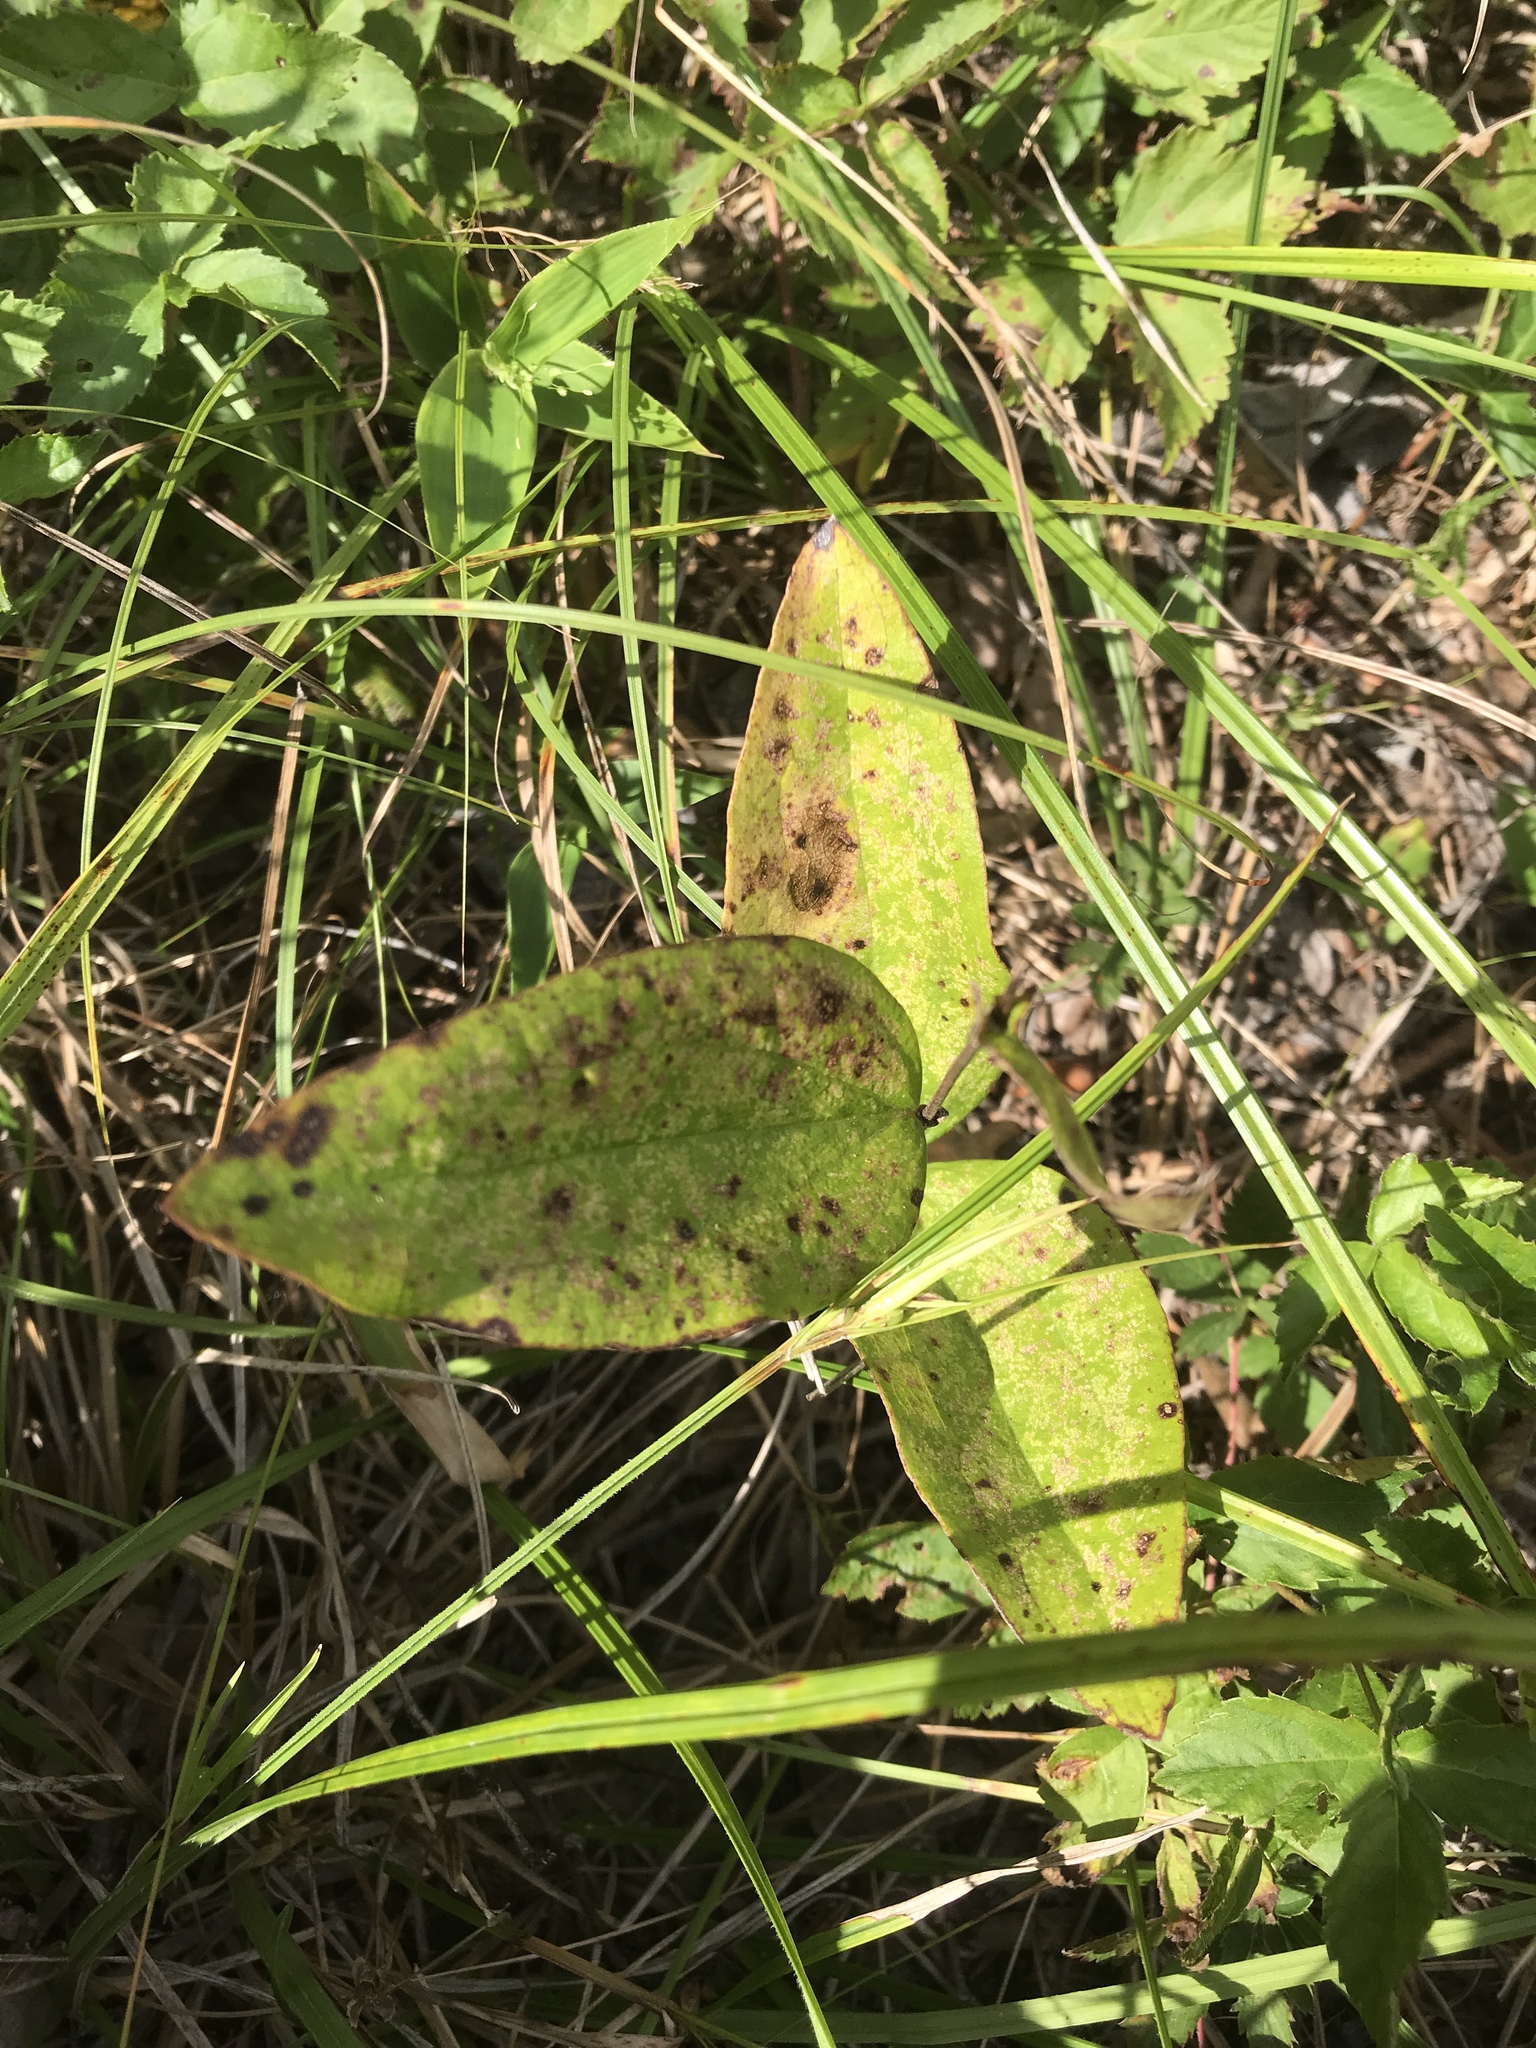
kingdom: Plantae
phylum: Tracheophyta
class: Magnoliopsida
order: Ranunculales
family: Ranunculaceae
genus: Clematis
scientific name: Clematis ochroleuca
